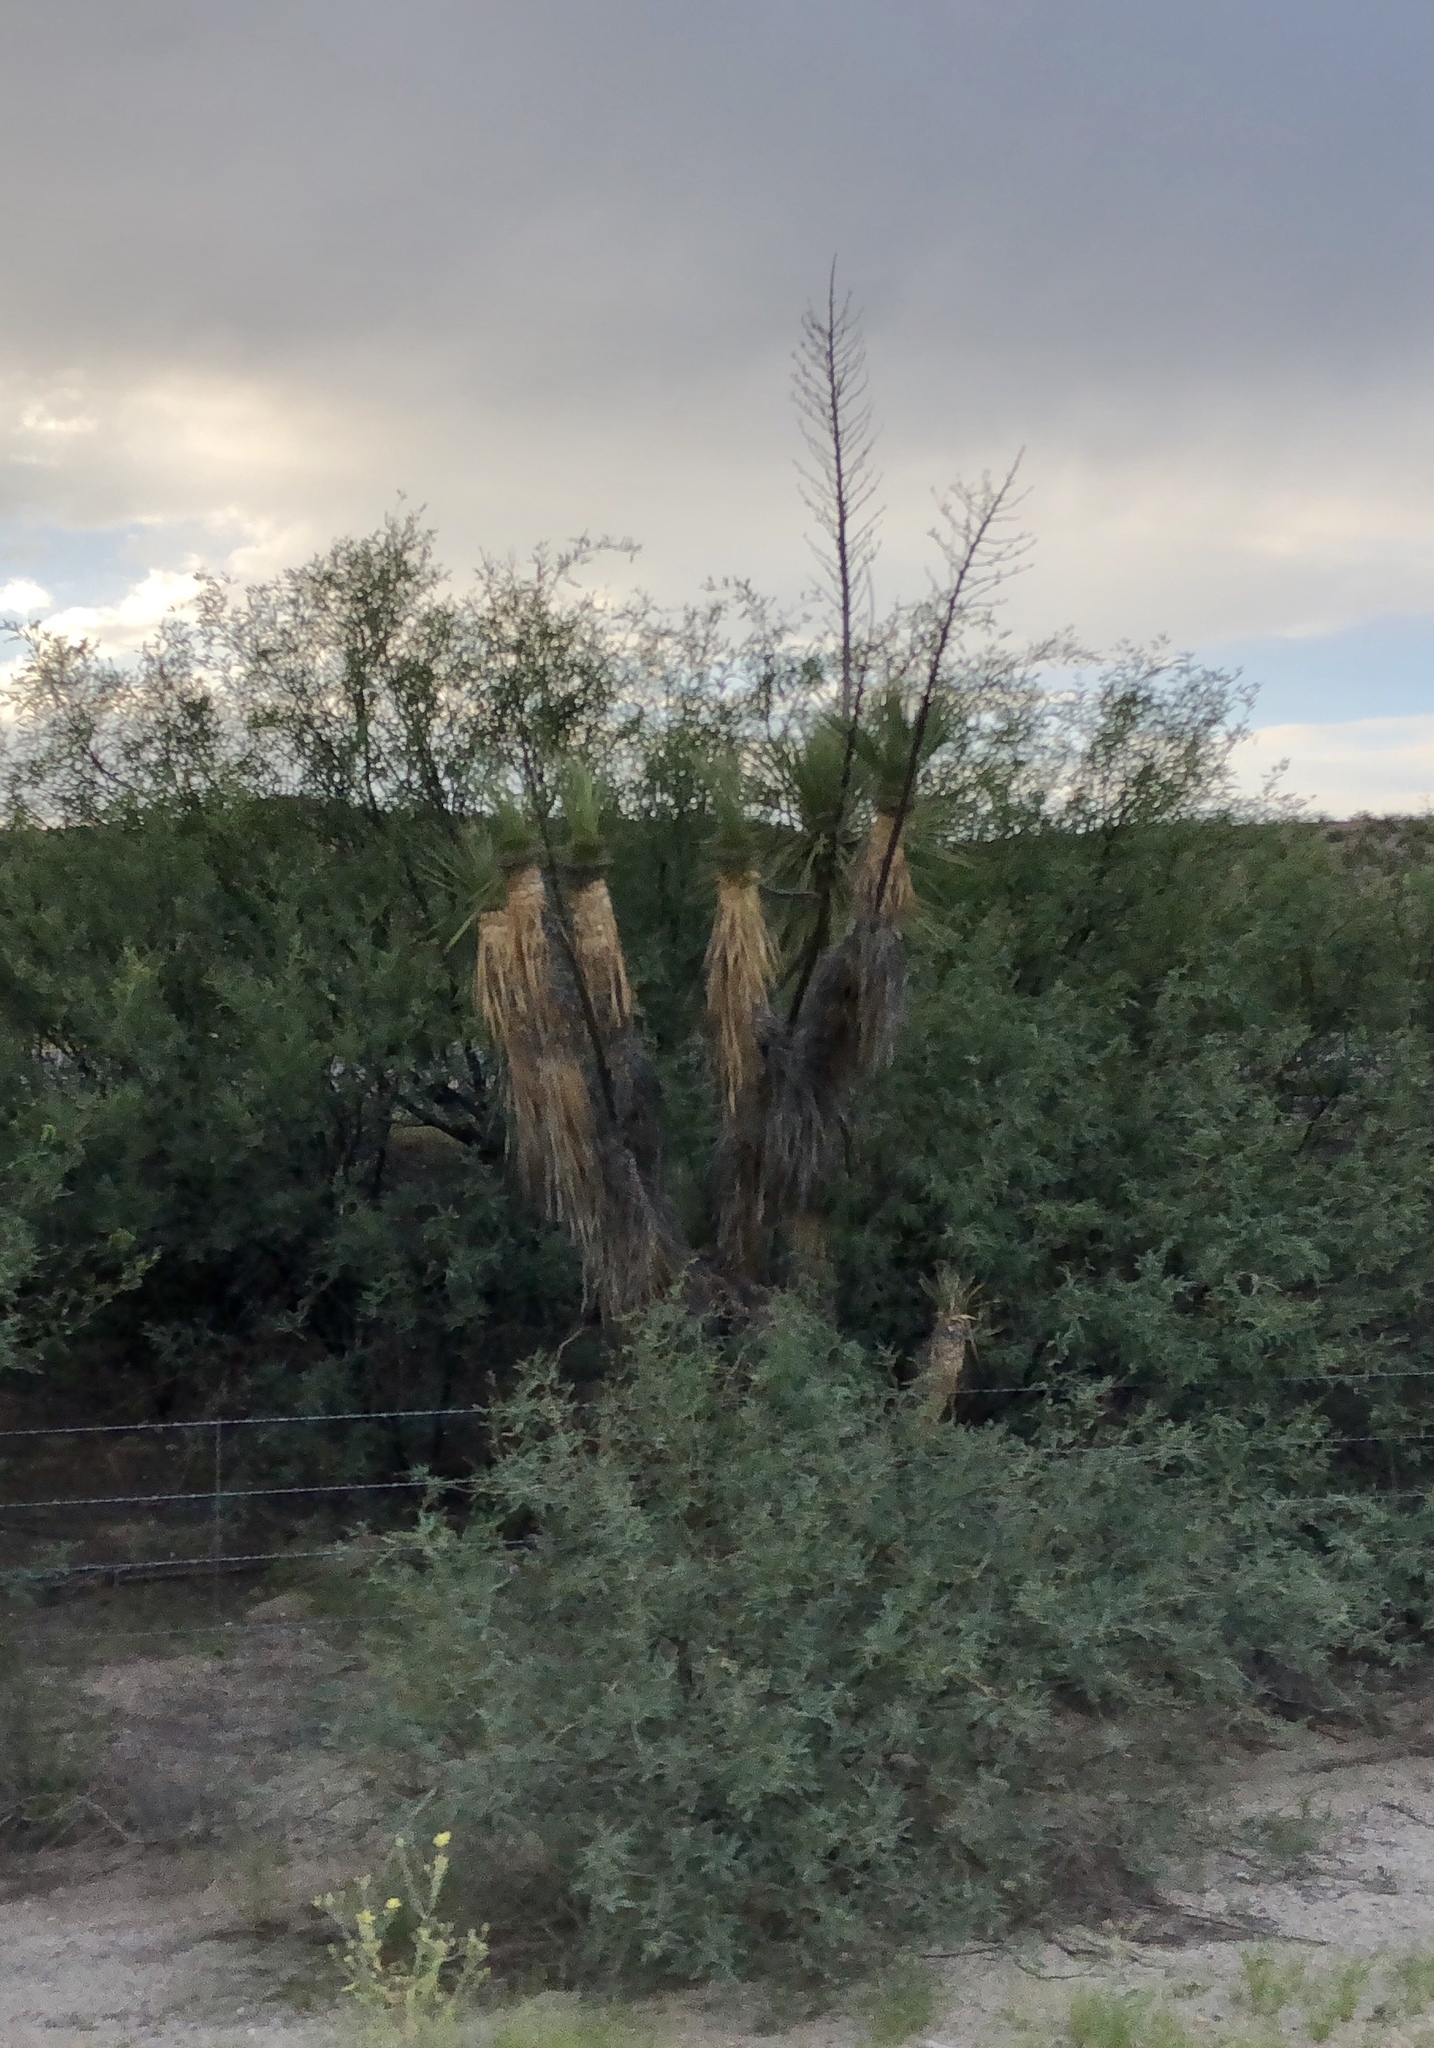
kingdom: Plantae
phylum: Tracheophyta
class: Liliopsida
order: Asparagales
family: Asparagaceae
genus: Yucca
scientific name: Yucca elata
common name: Palmella
